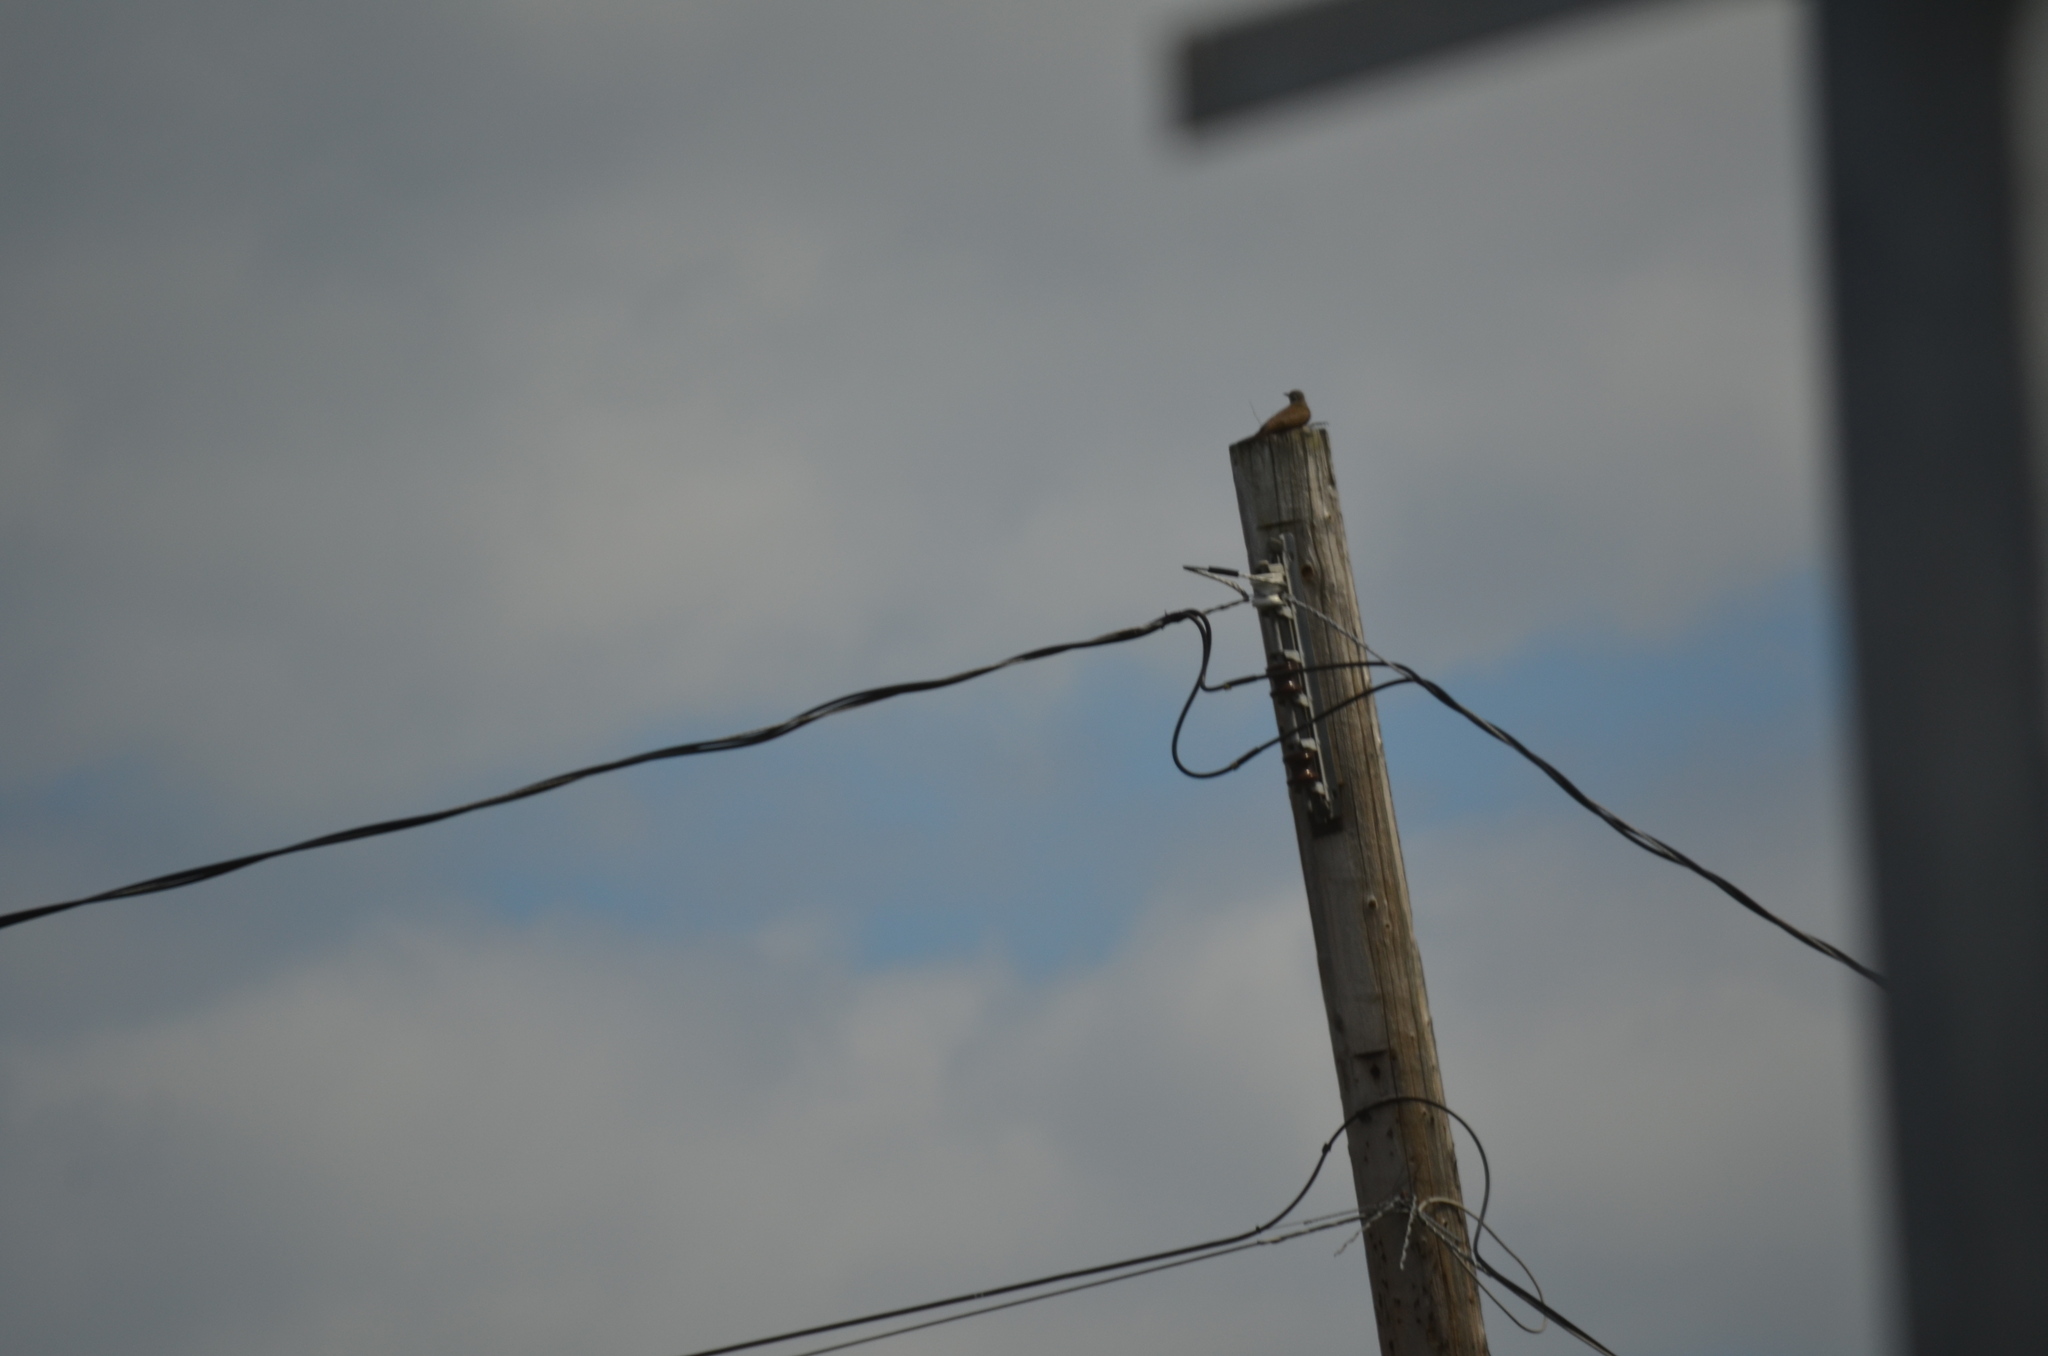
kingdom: Animalia
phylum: Chordata
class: Aves
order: Piciformes
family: Picidae
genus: Colaptes
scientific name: Colaptes auratus
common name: Northern flicker
